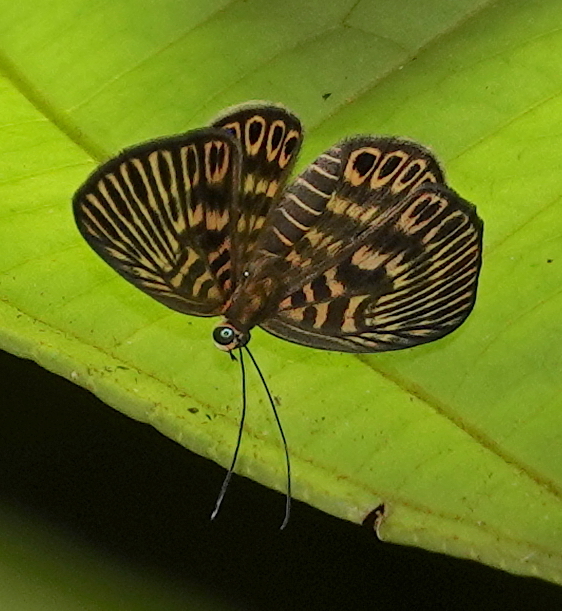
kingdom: Animalia
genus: Alesa
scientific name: Alesa amesis
